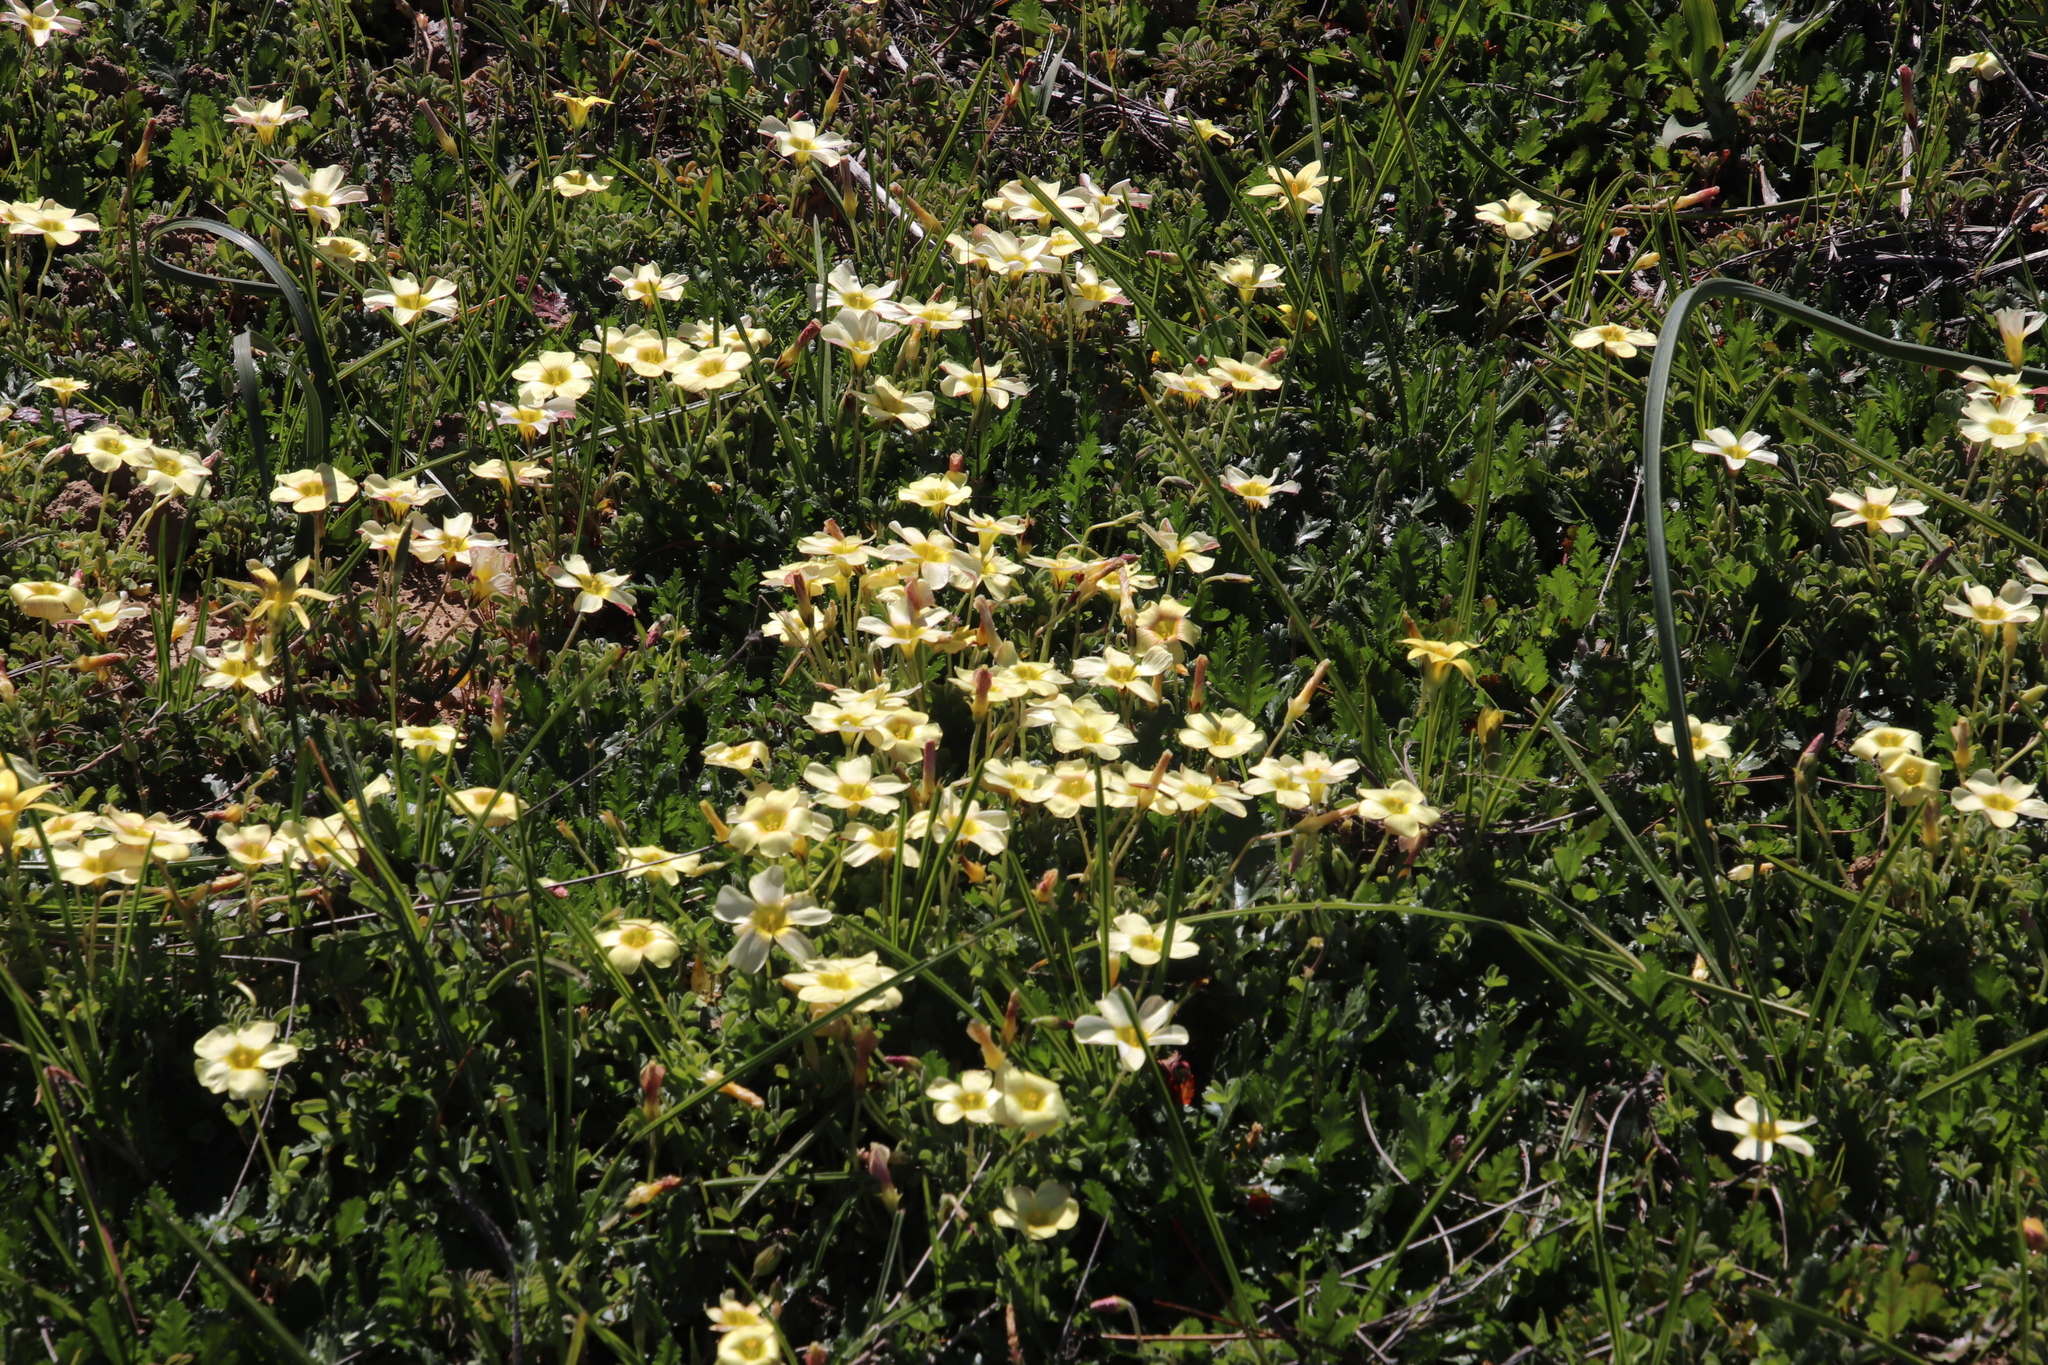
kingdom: Plantae
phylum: Tracheophyta
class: Magnoliopsida
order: Oxalidales
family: Oxalidaceae
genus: Oxalis
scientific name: Oxalis obtusa
